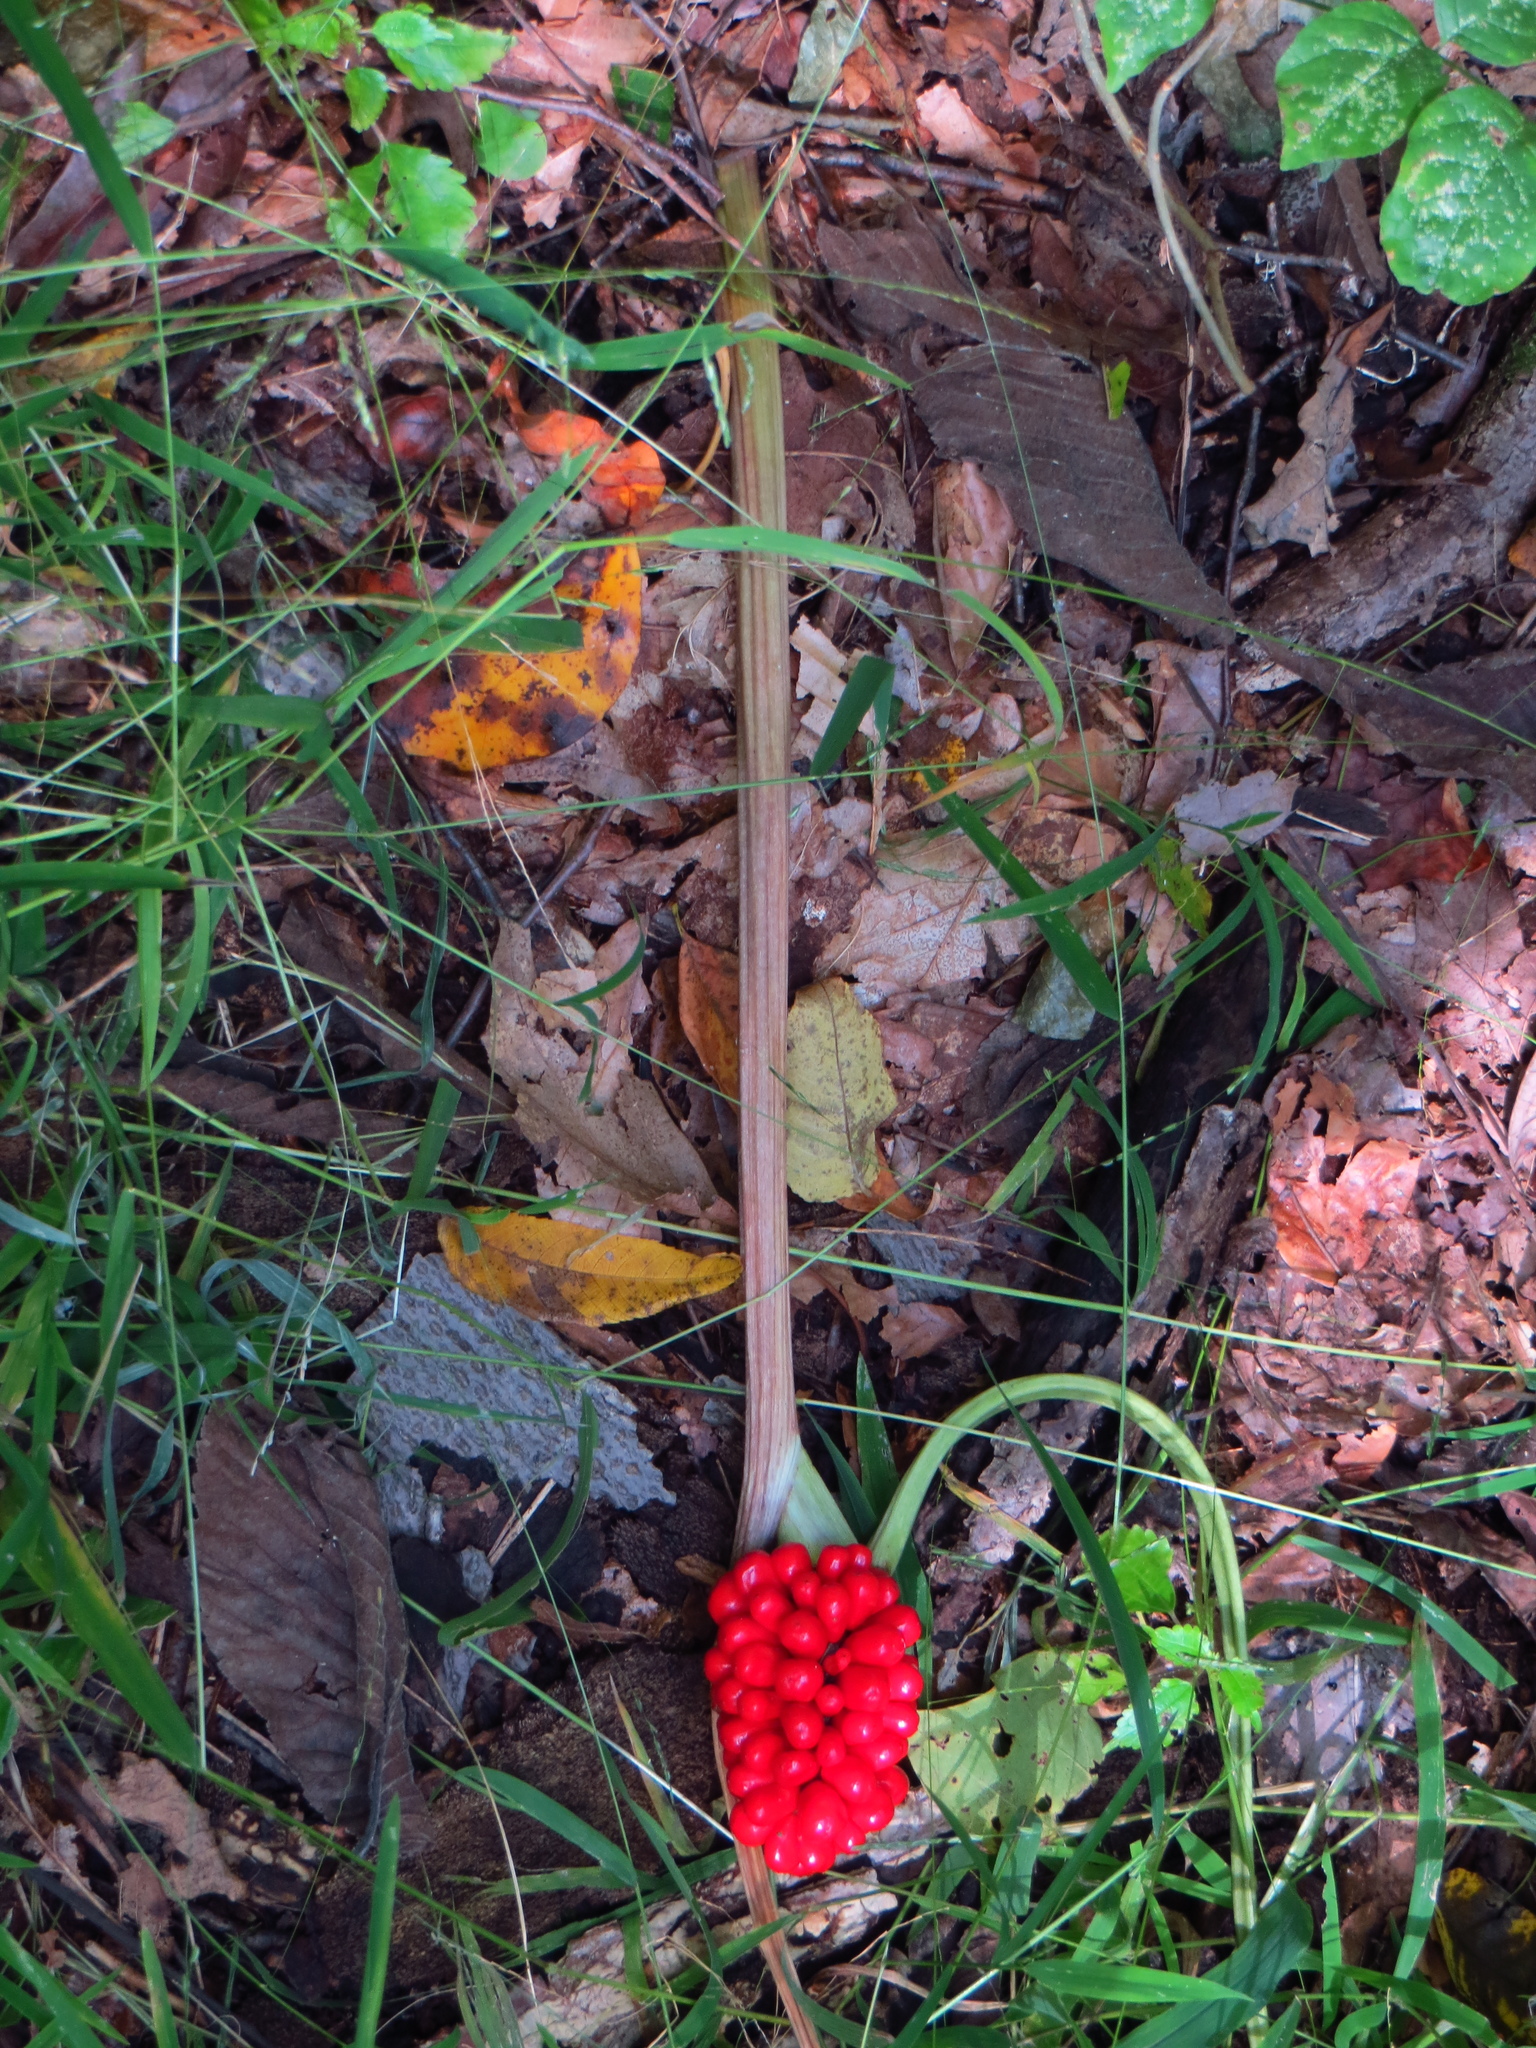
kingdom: Plantae
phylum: Tracheophyta
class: Liliopsida
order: Alismatales
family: Araceae
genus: Arisaema
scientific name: Arisaema triphyllum
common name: Jack-in-the-pulpit
